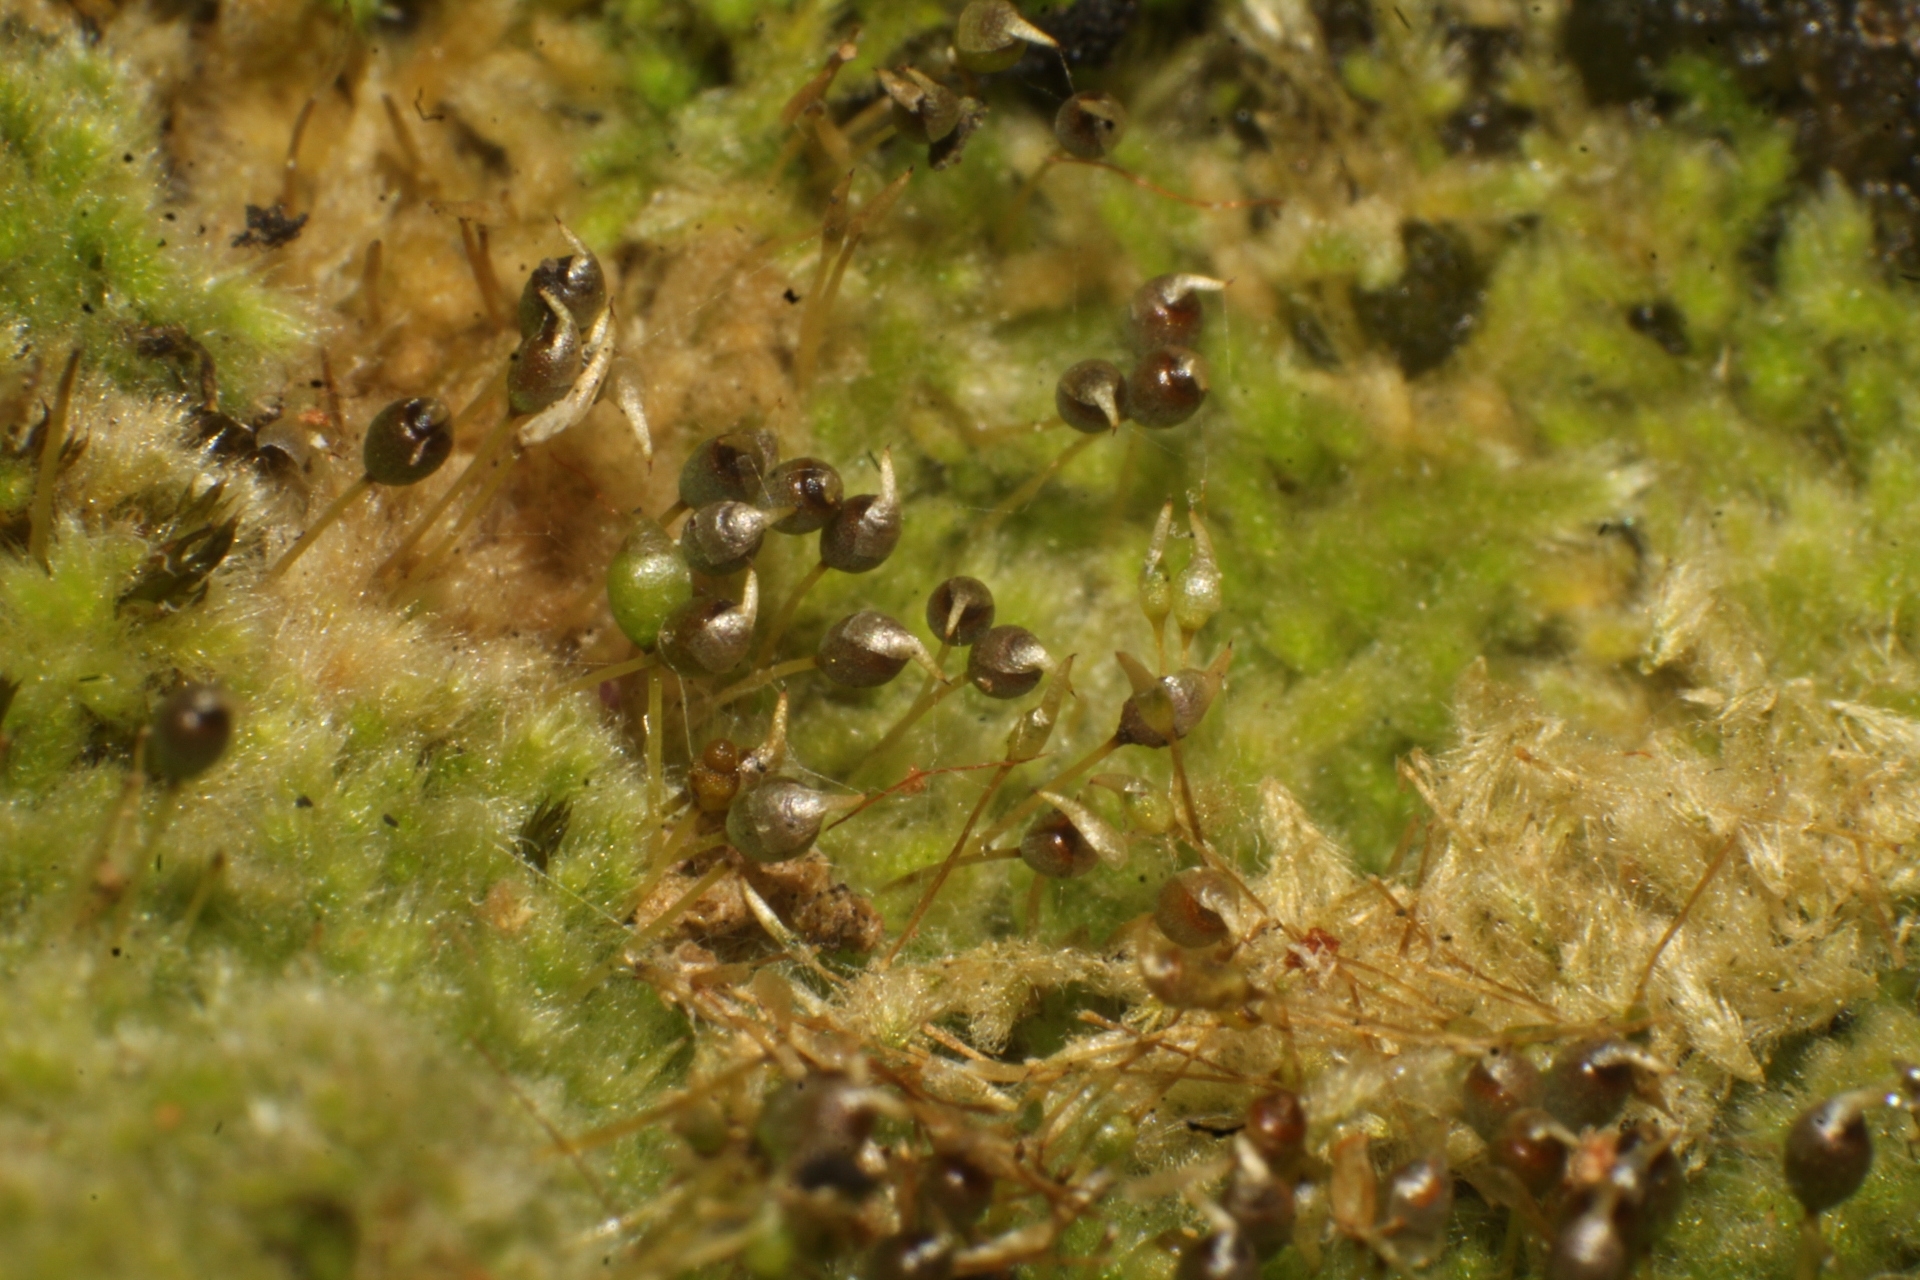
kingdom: Plantae
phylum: Bryophyta
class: Bryopsida
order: Hypnales
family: Fabroniaceae
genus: Fabronia
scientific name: Fabronia hampeana
